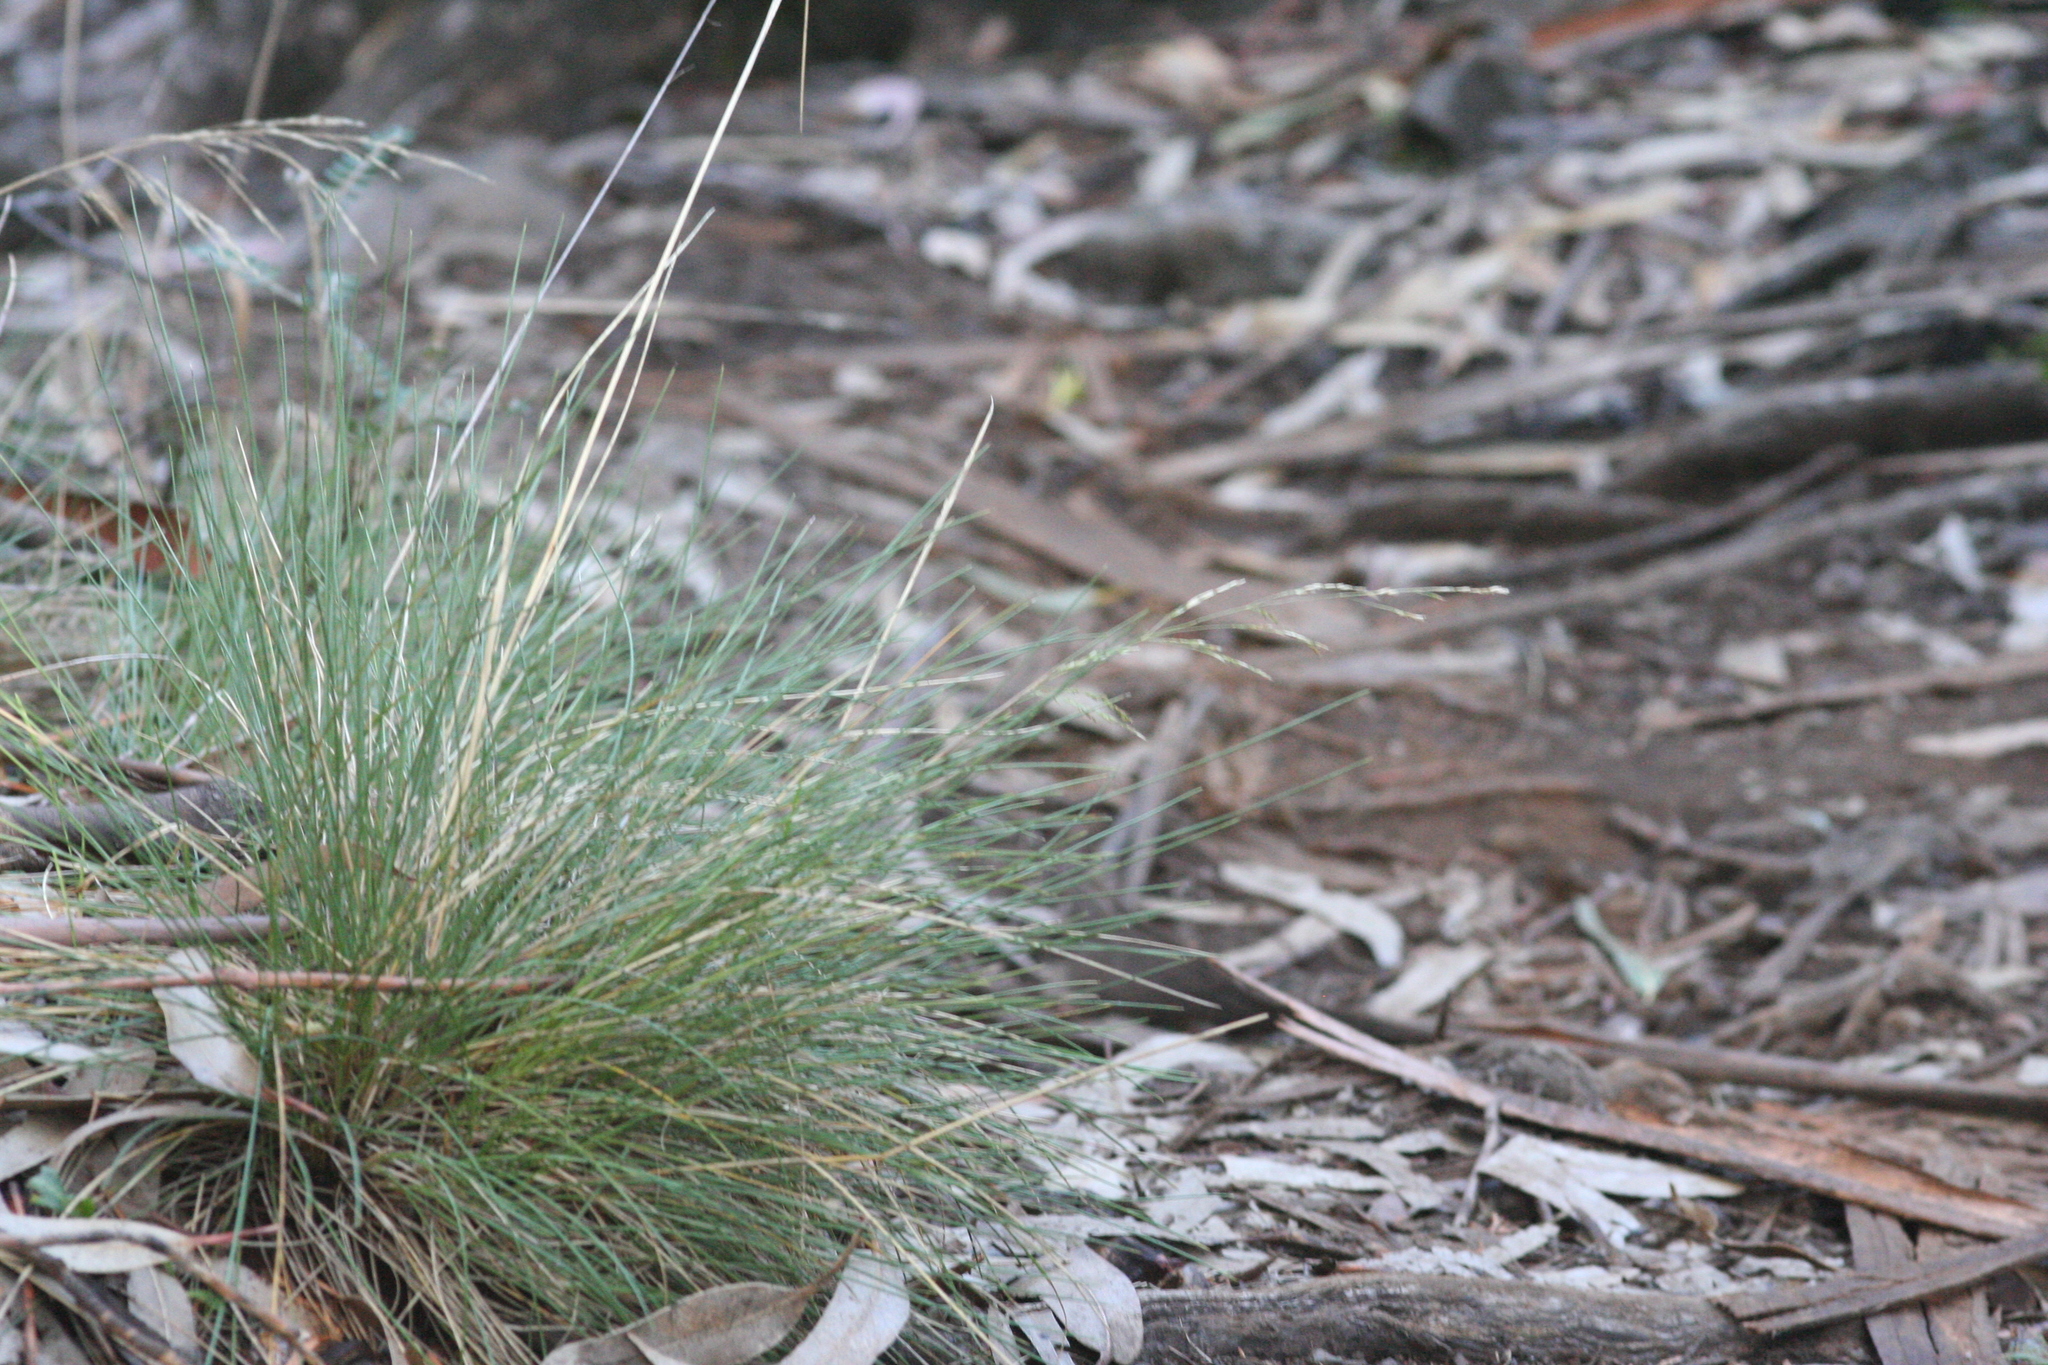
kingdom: Plantae
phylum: Tracheophyta
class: Liliopsida
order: Poales
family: Poaceae
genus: Deschampsia
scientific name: Deschampsia nubigena
